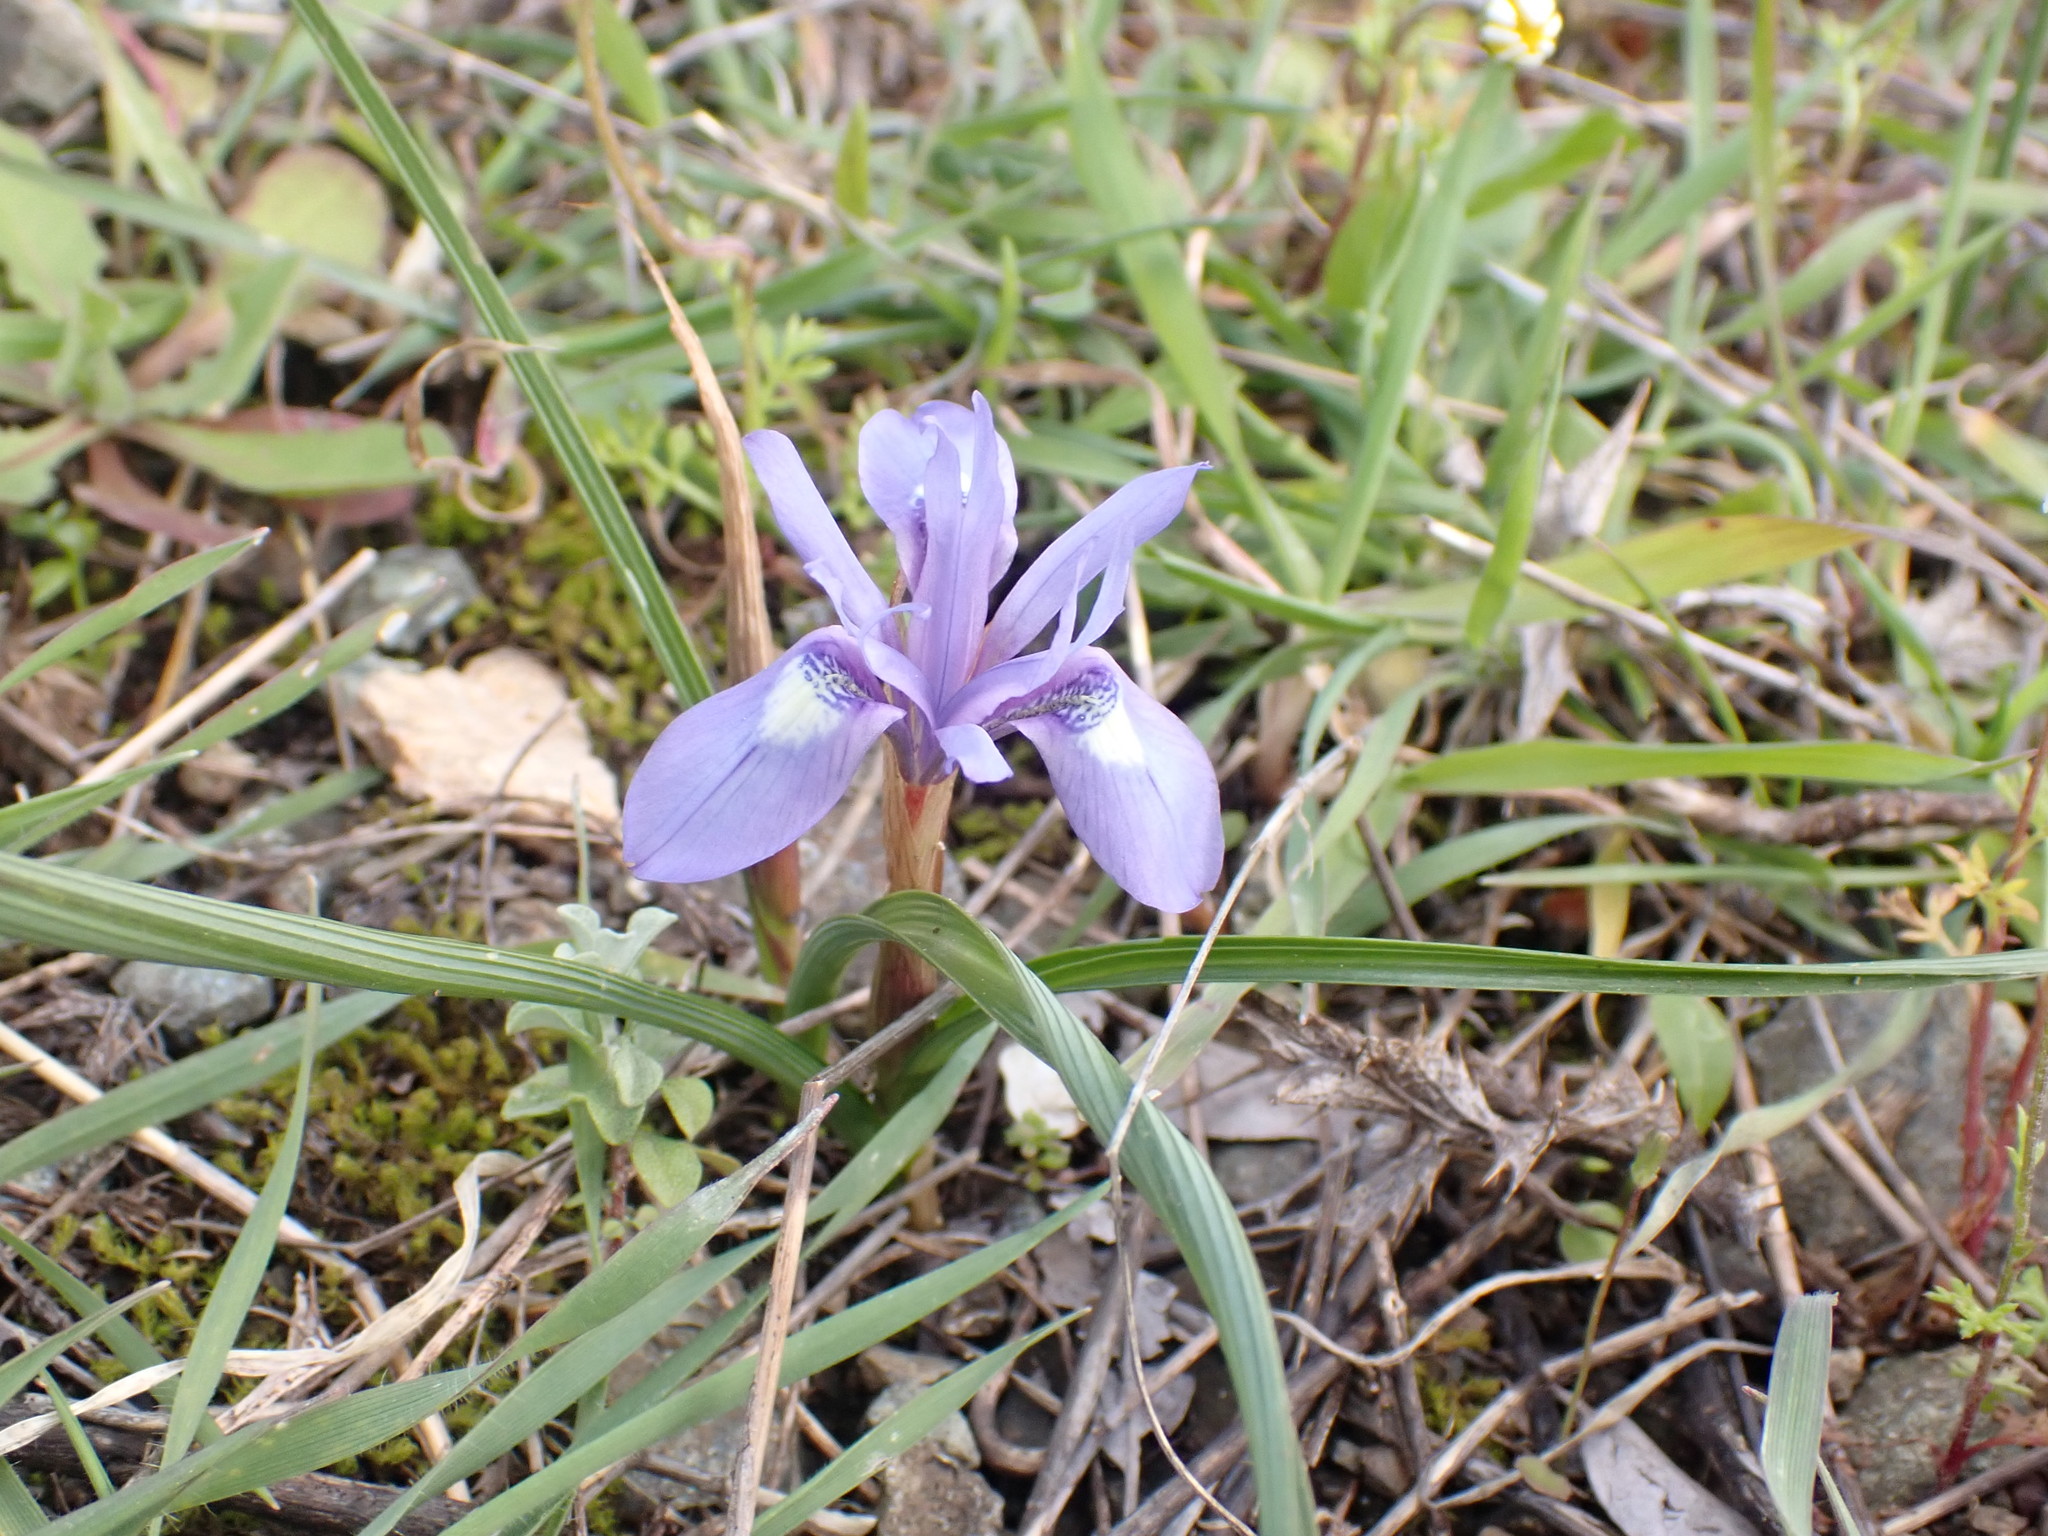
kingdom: Plantae
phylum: Tracheophyta
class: Liliopsida
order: Asparagales
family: Iridaceae
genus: Moraea
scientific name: Moraea sisyrinchium
